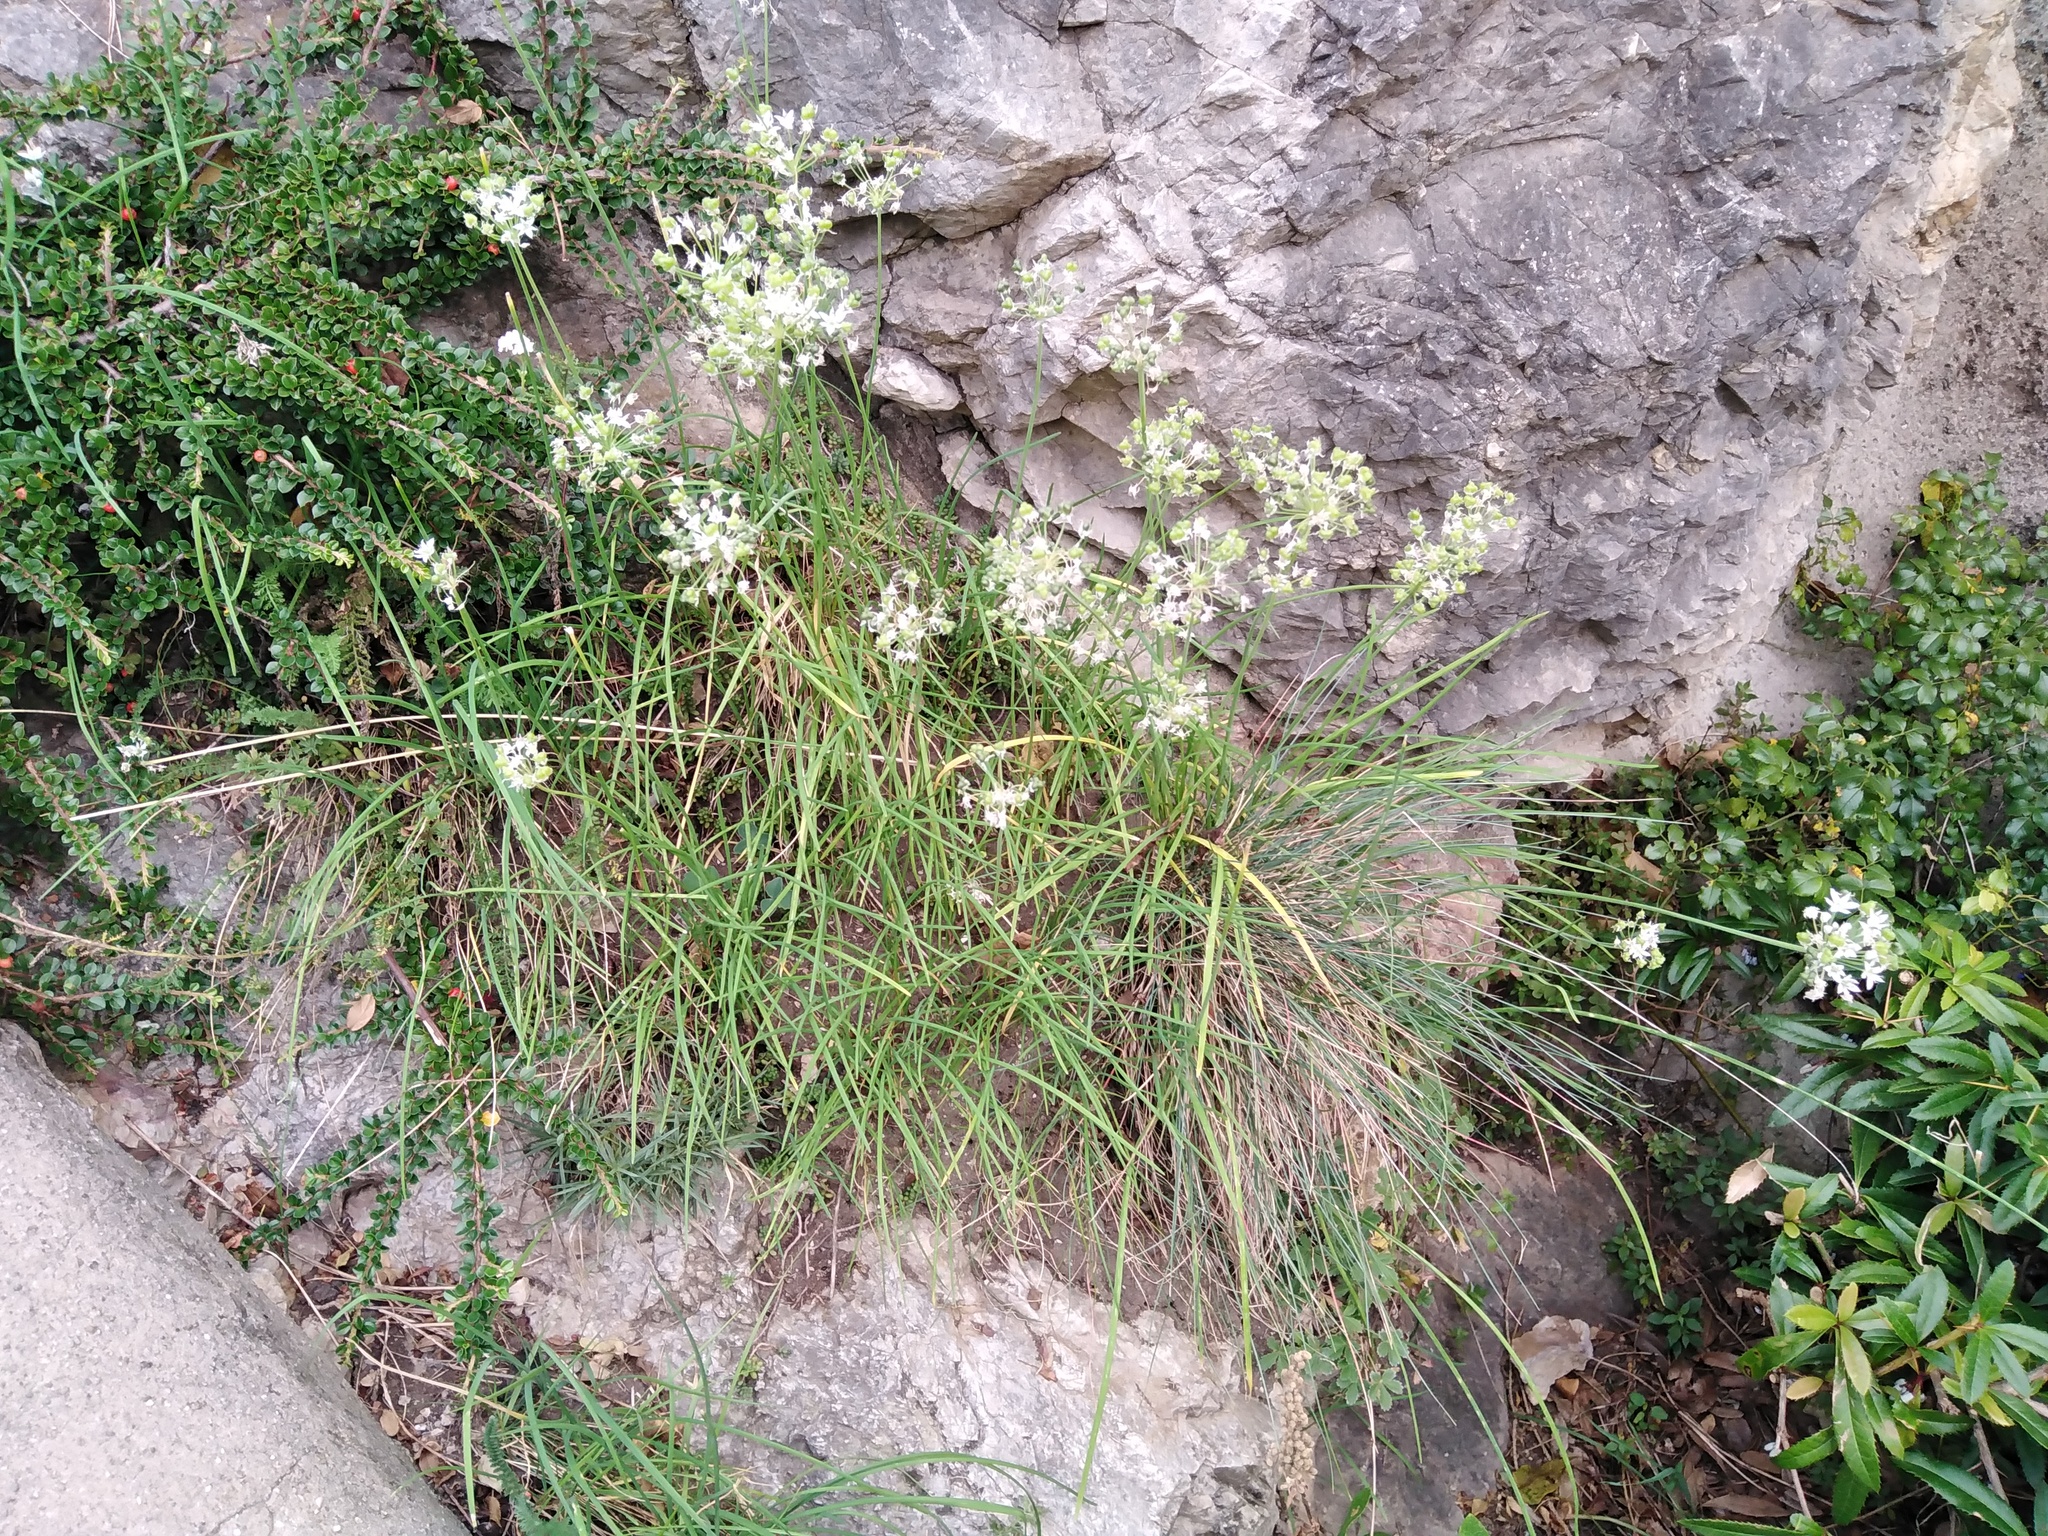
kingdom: Plantae
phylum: Tracheophyta
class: Liliopsida
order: Asparagales
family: Amaryllidaceae
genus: Allium
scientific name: Allium tuberosum
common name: Chinese chives
